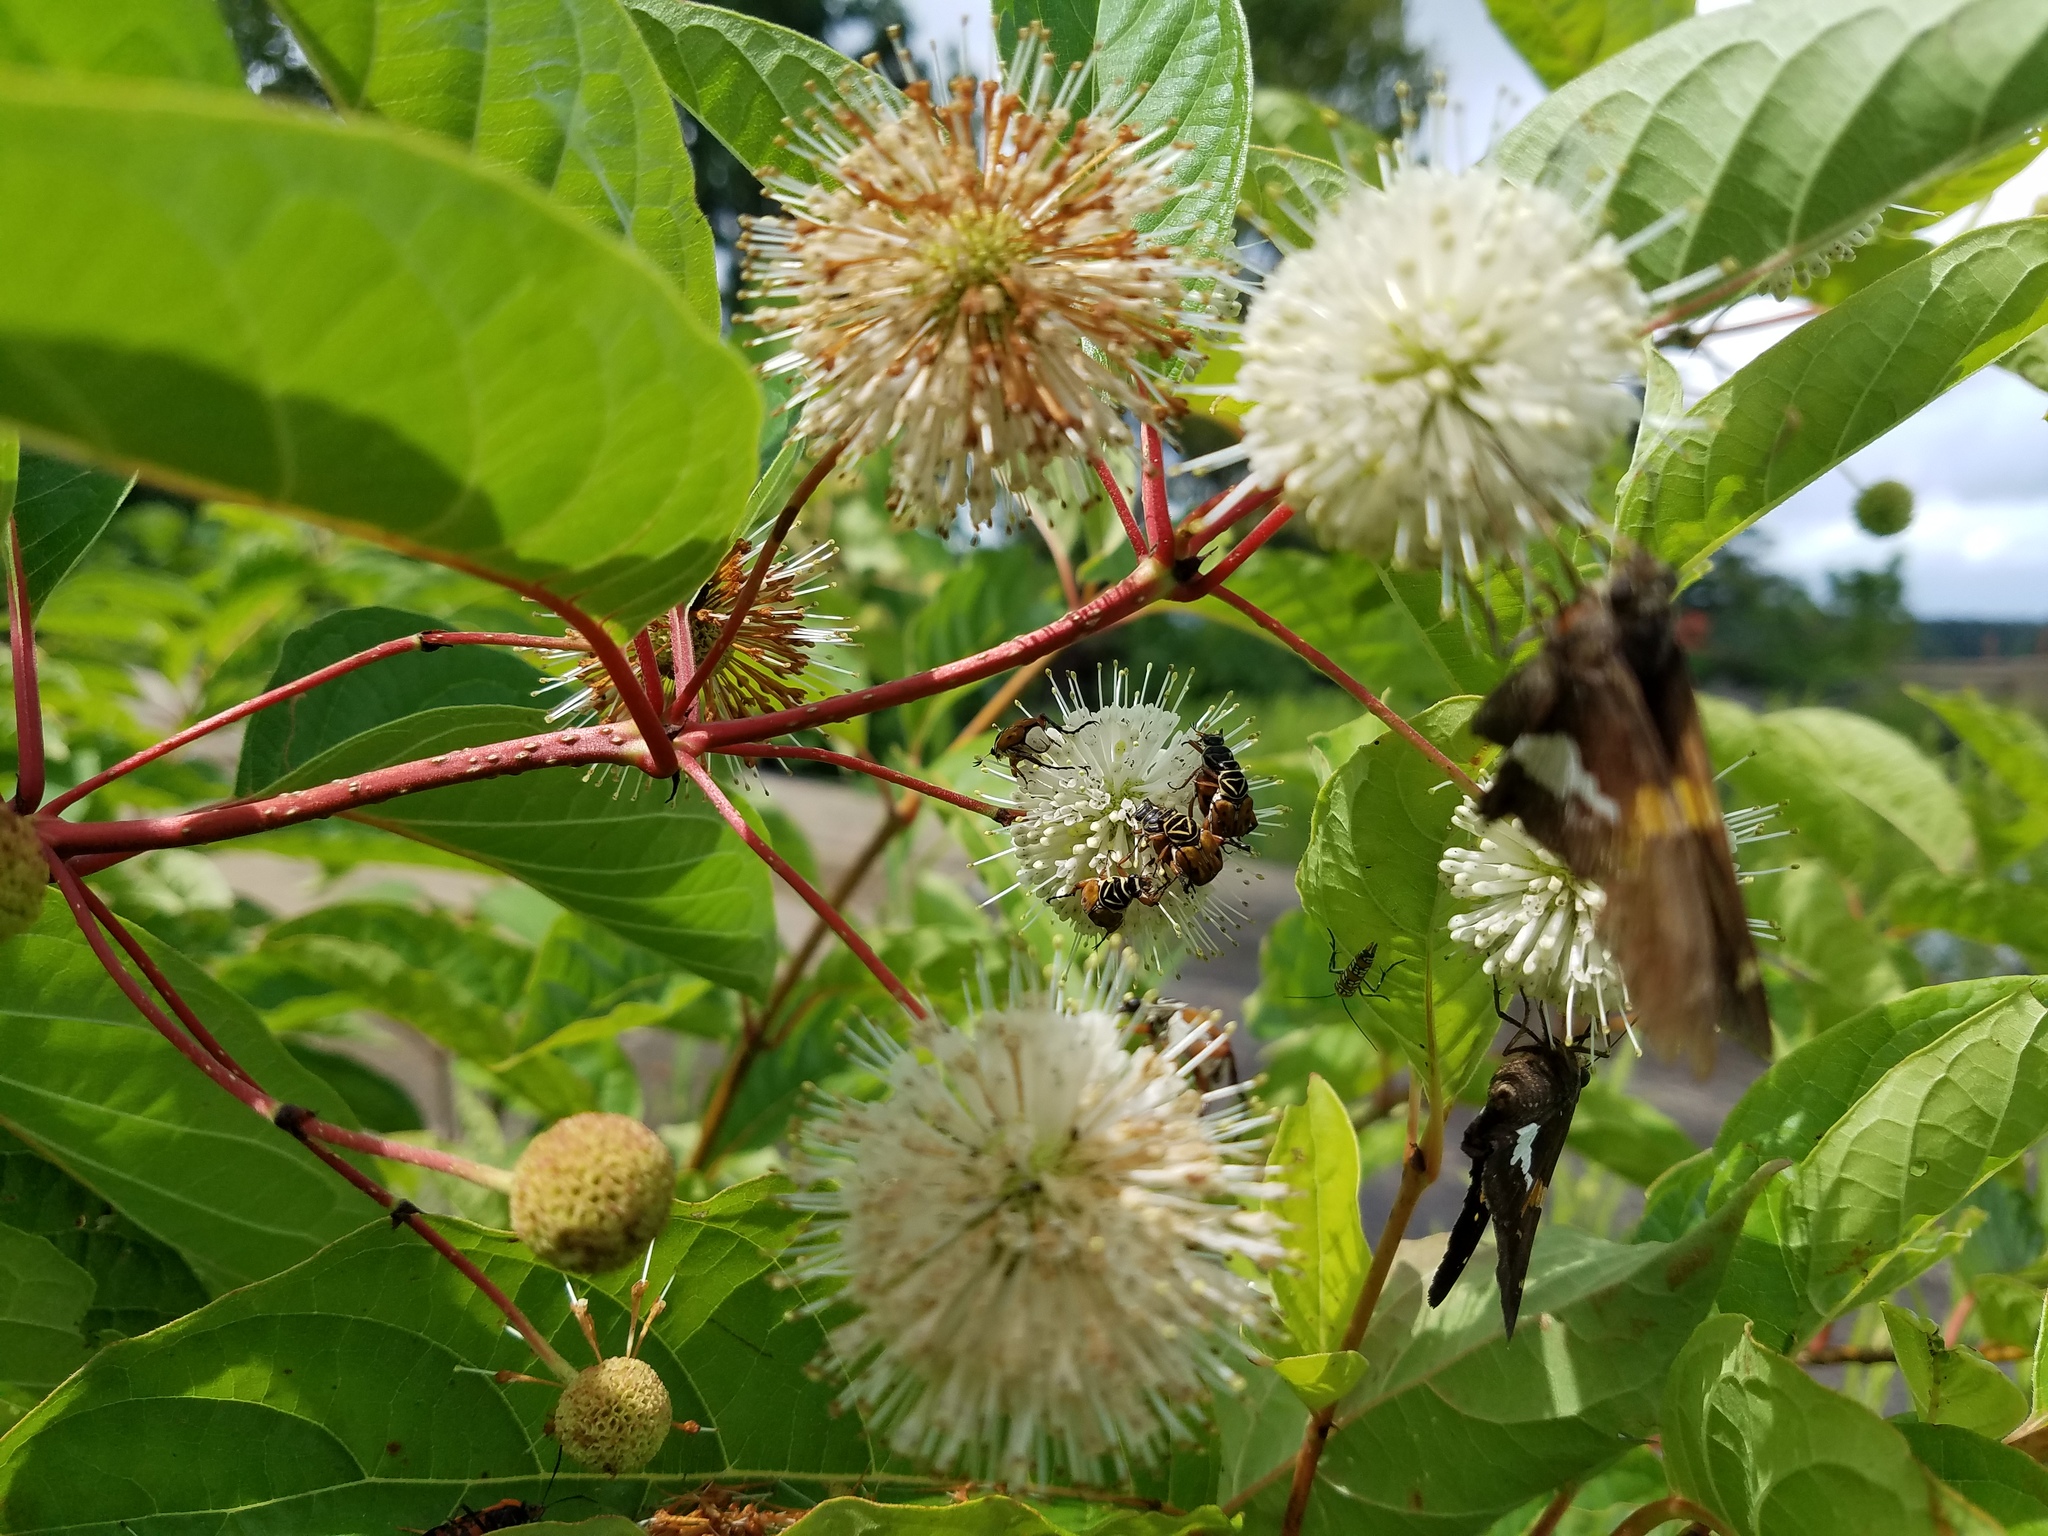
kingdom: Animalia
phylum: Arthropoda
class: Insecta
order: Coleoptera
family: Scarabaeidae
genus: Trigonopeltastes
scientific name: Trigonopeltastes delta
